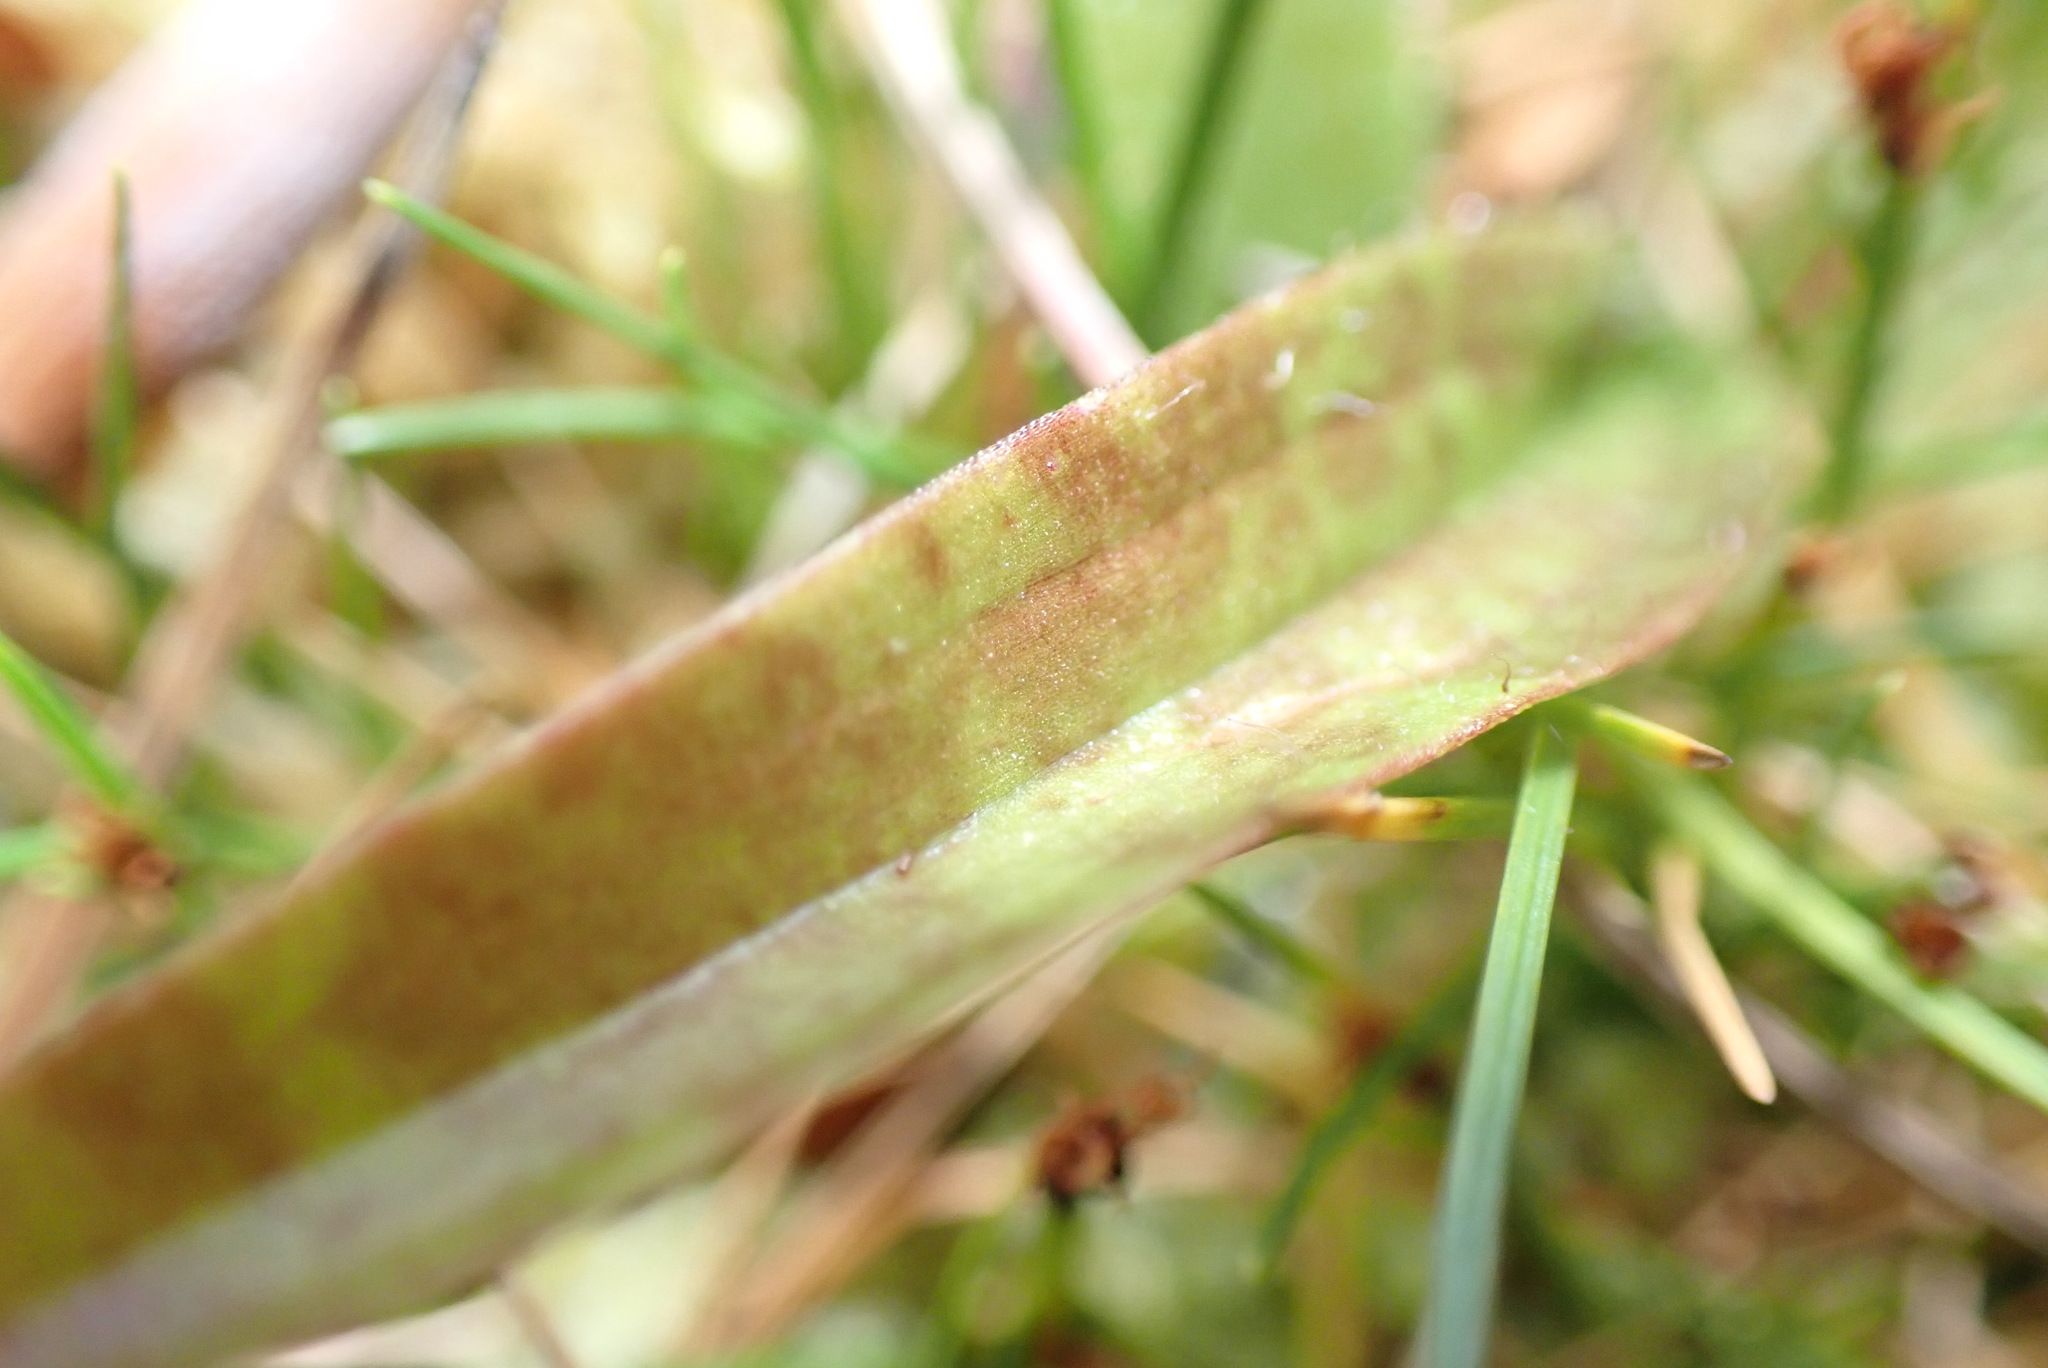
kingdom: Plantae
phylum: Tracheophyta
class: Liliopsida
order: Asparagales
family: Orchidaceae
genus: Aporostylis
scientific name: Aporostylis bifolia
